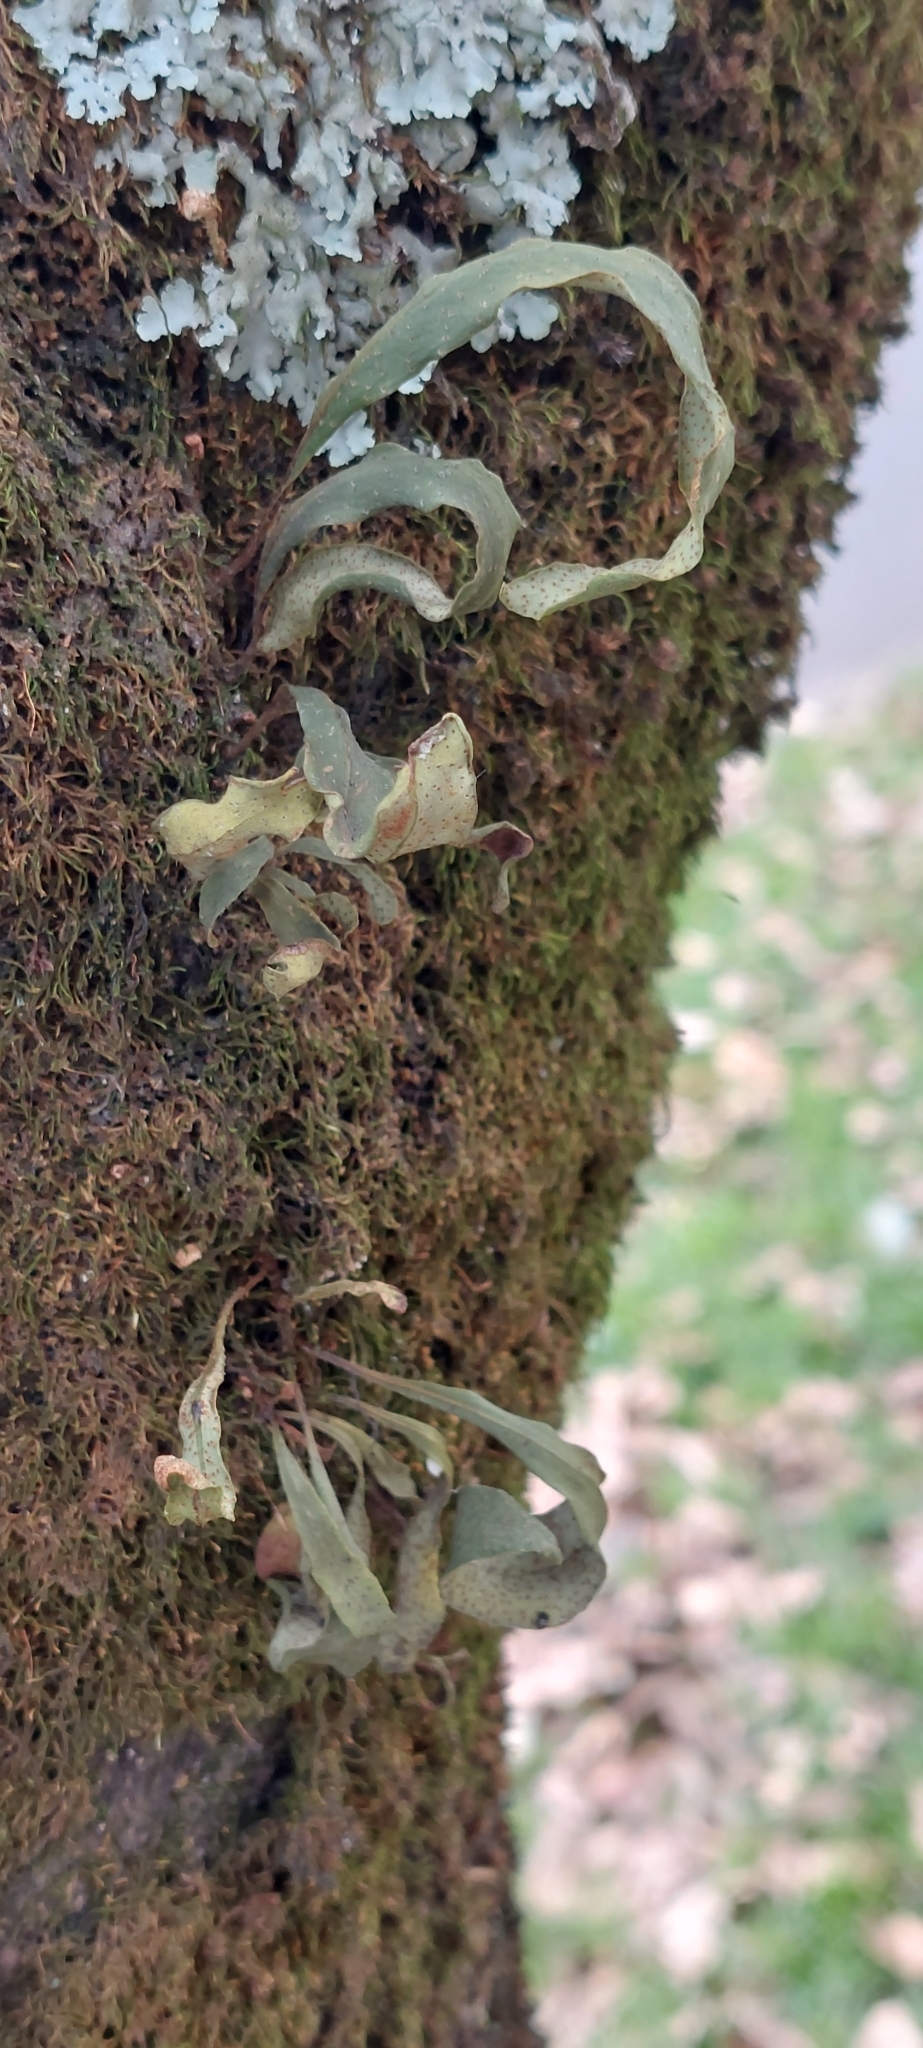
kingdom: Plantae
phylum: Tracheophyta
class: Polypodiopsida
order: Polypodiales
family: Polypodiaceae
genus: Pleopeltis
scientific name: Pleopeltis macrocarpa
